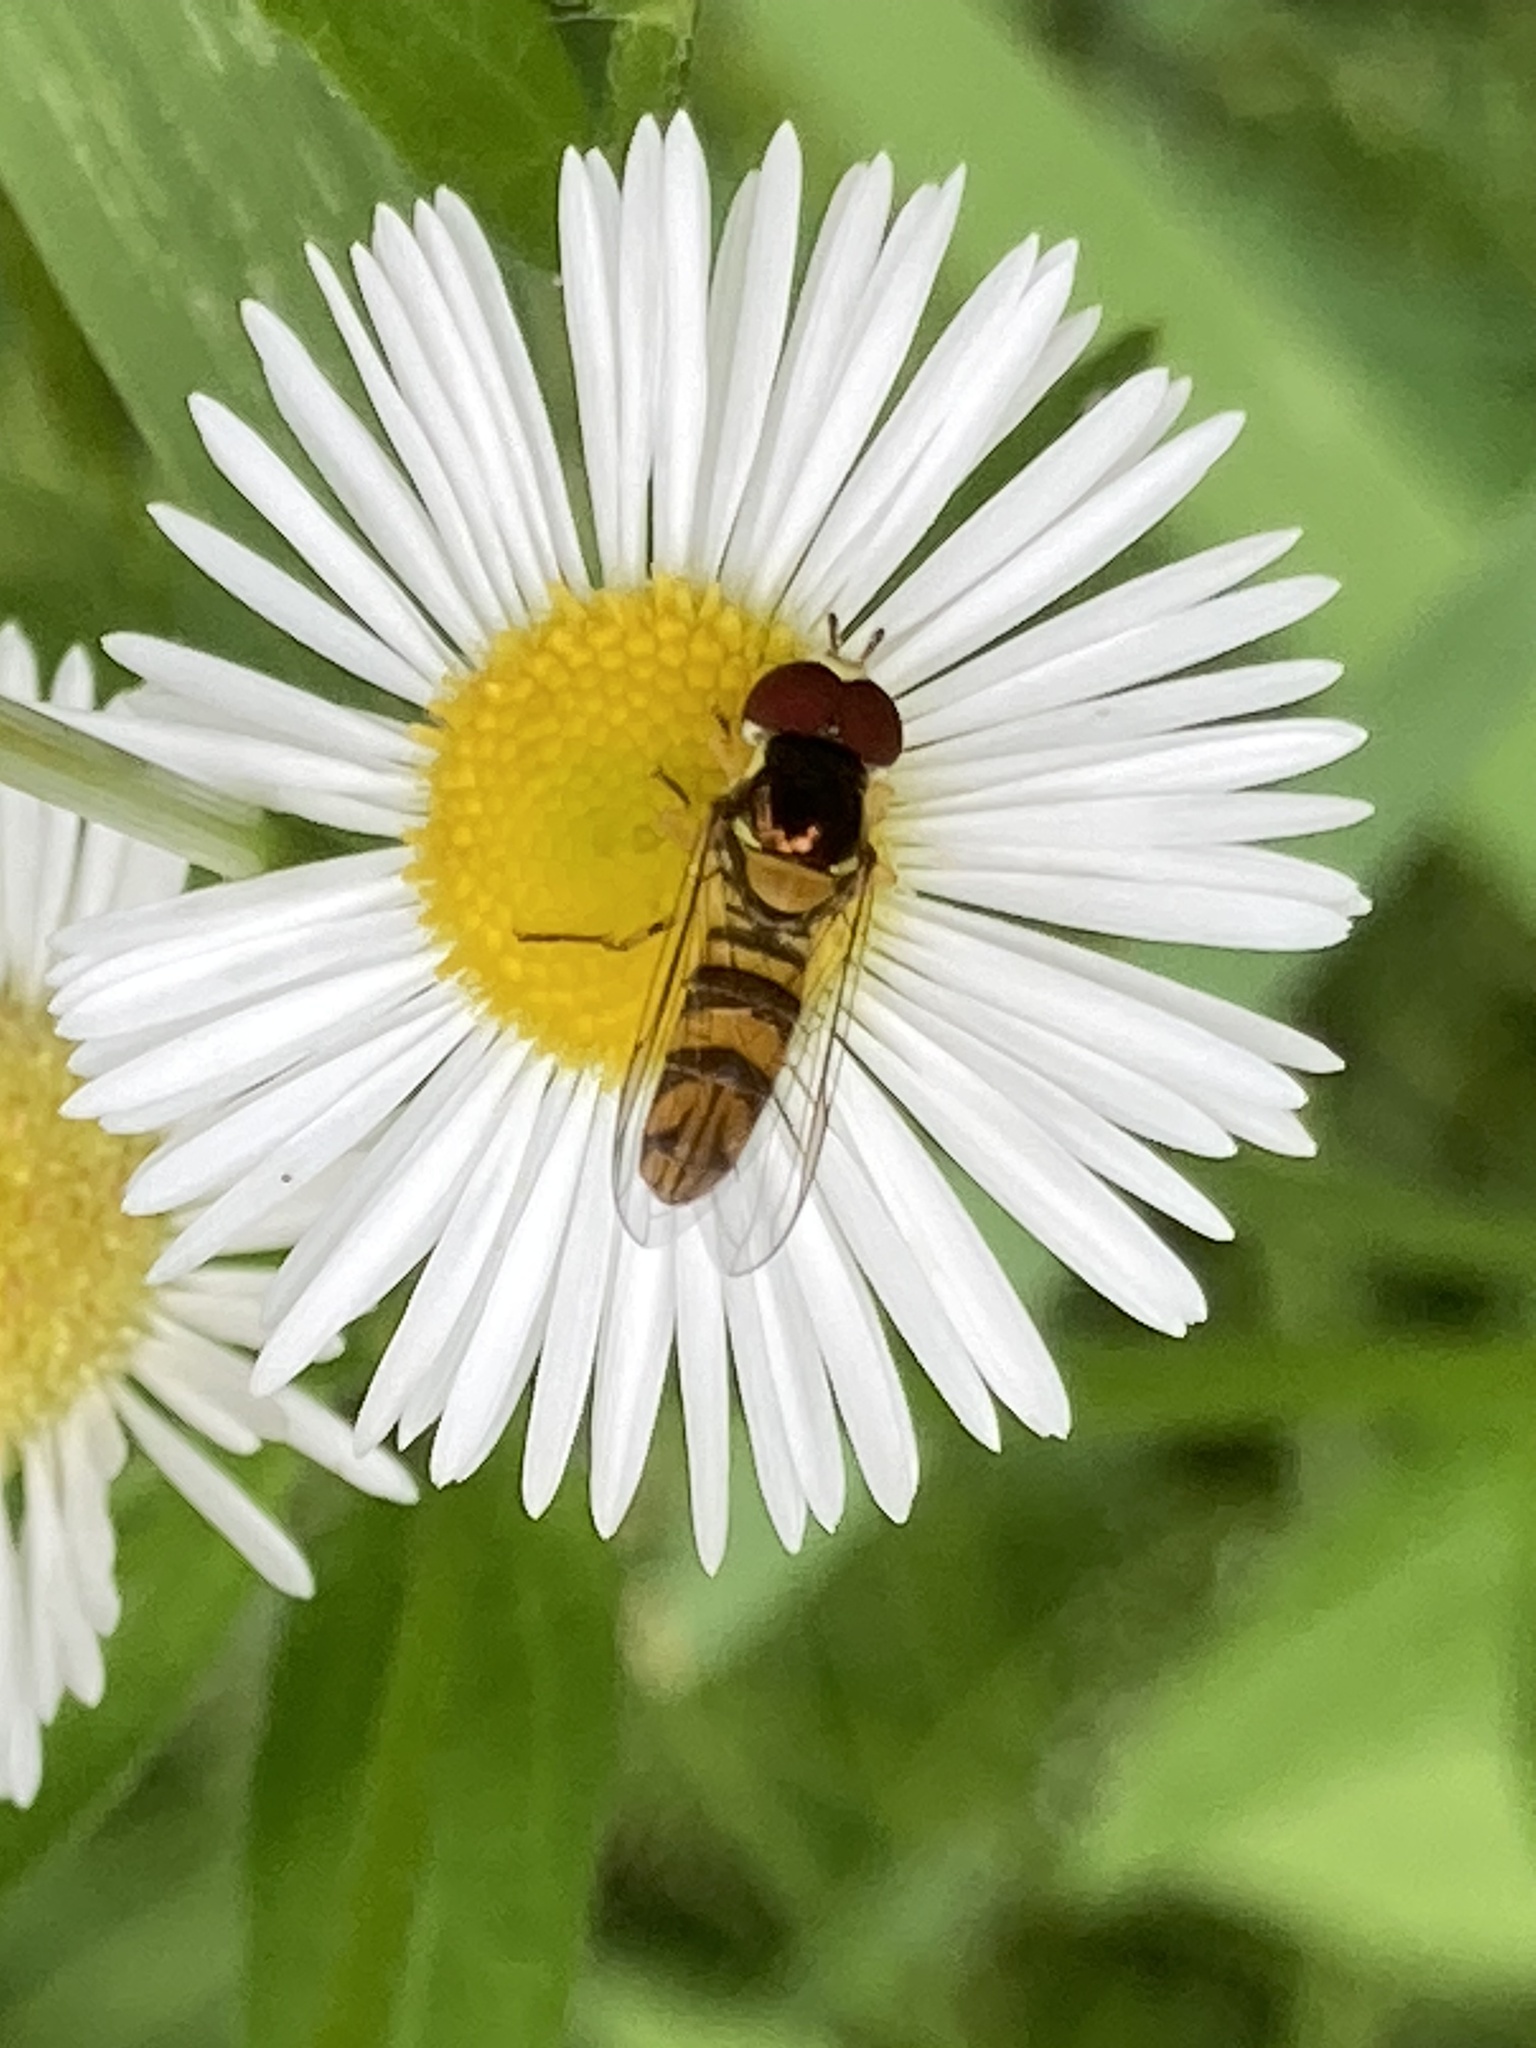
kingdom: Animalia
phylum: Arthropoda
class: Insecta
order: Diptera
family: Syrphidae
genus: Allograpta
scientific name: Allograpta obliqua
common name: Common oblique syrphid
